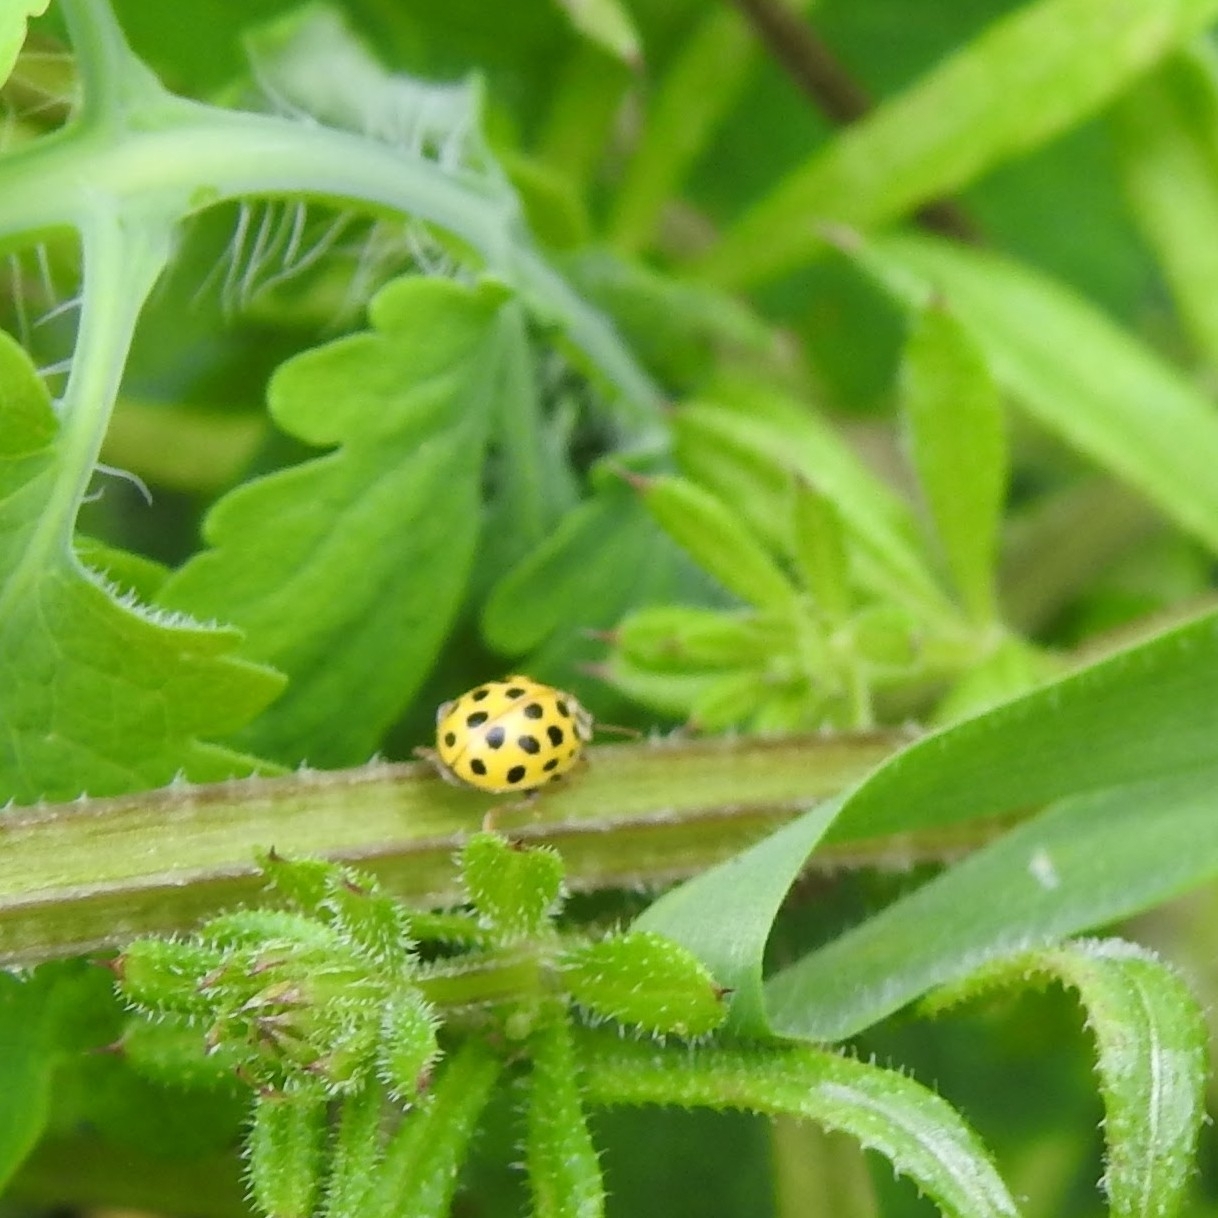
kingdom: Animalia
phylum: Arthropoda
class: Insecta
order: Coleoptera
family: Coccinellidae
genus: Psyllobora
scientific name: Psyllobora vigintiduopunctata
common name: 22-spot ladybird
